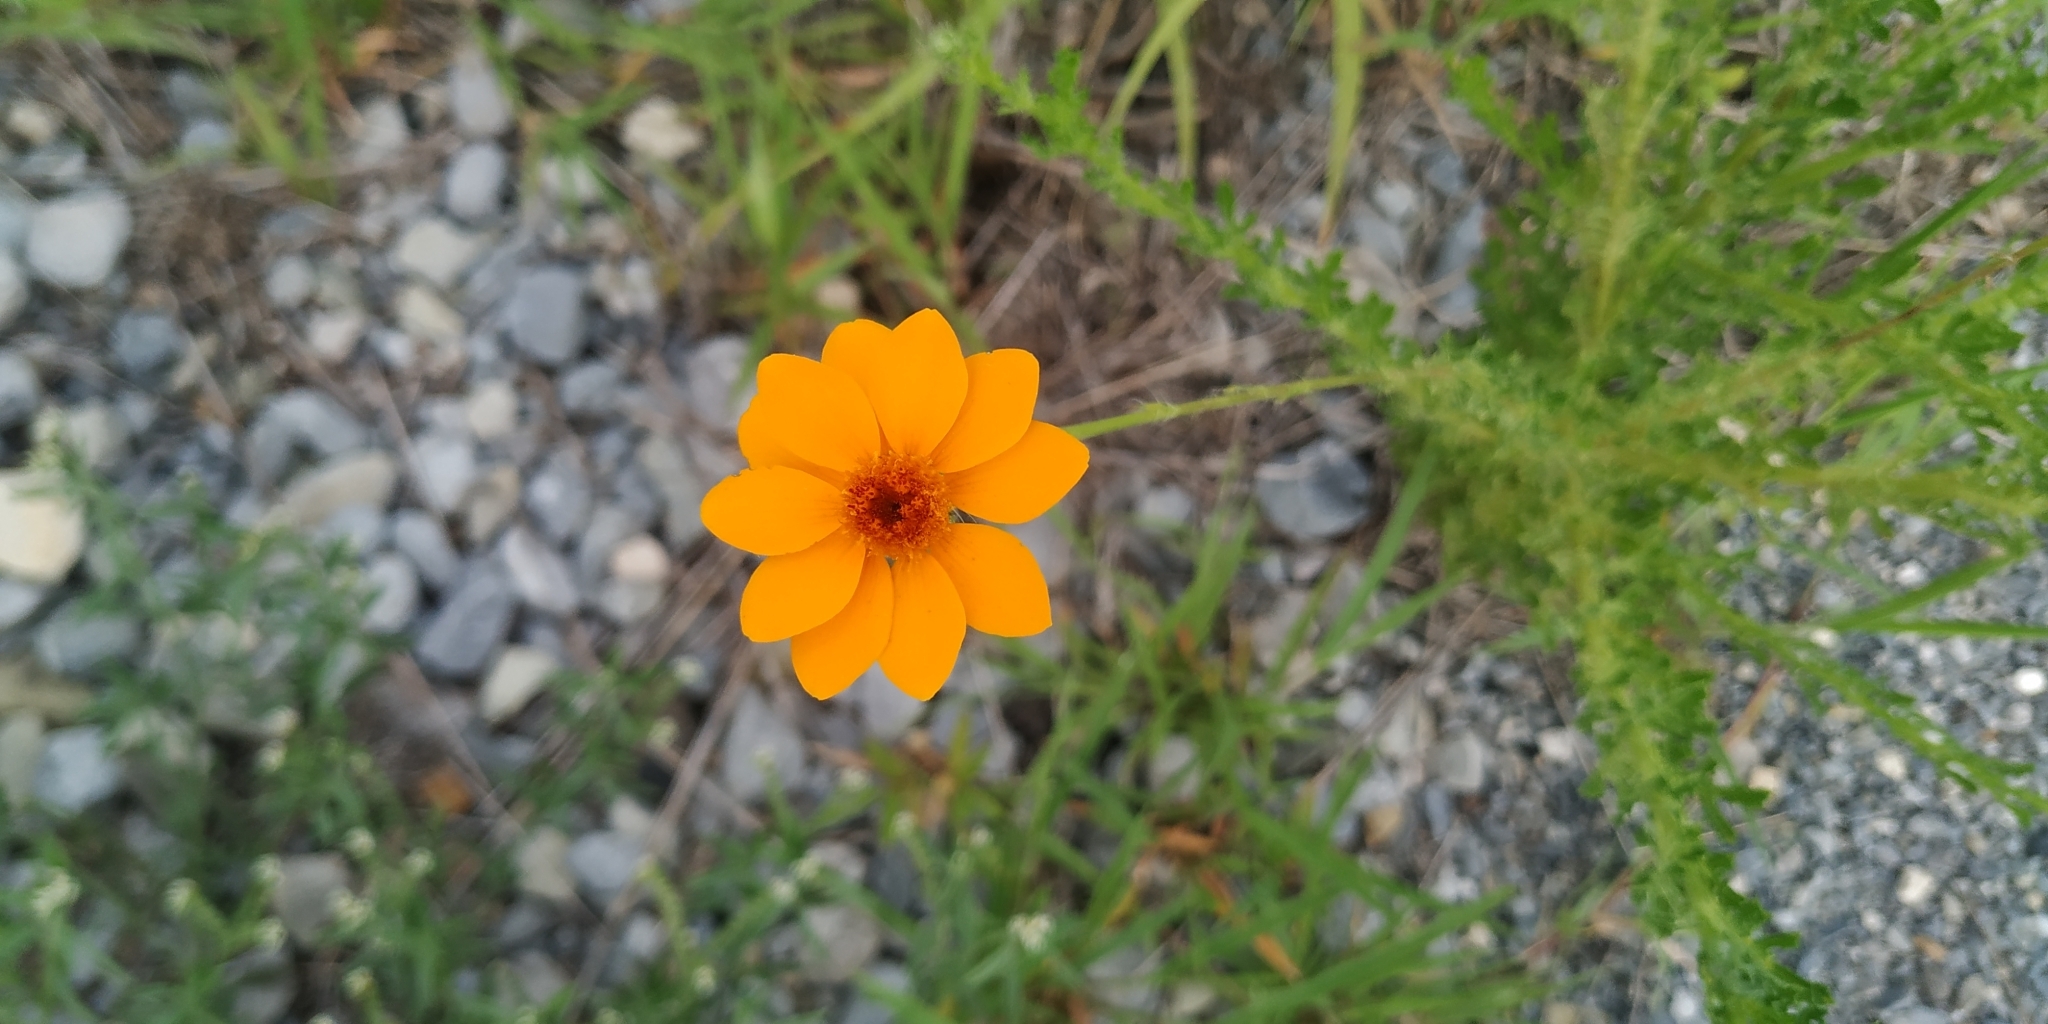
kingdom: Plantae
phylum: Tracheophyta
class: Magnoliopsida
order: Asterales
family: Asteraceae
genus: Adenophyllum
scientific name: Adenophyllum cancellatum
